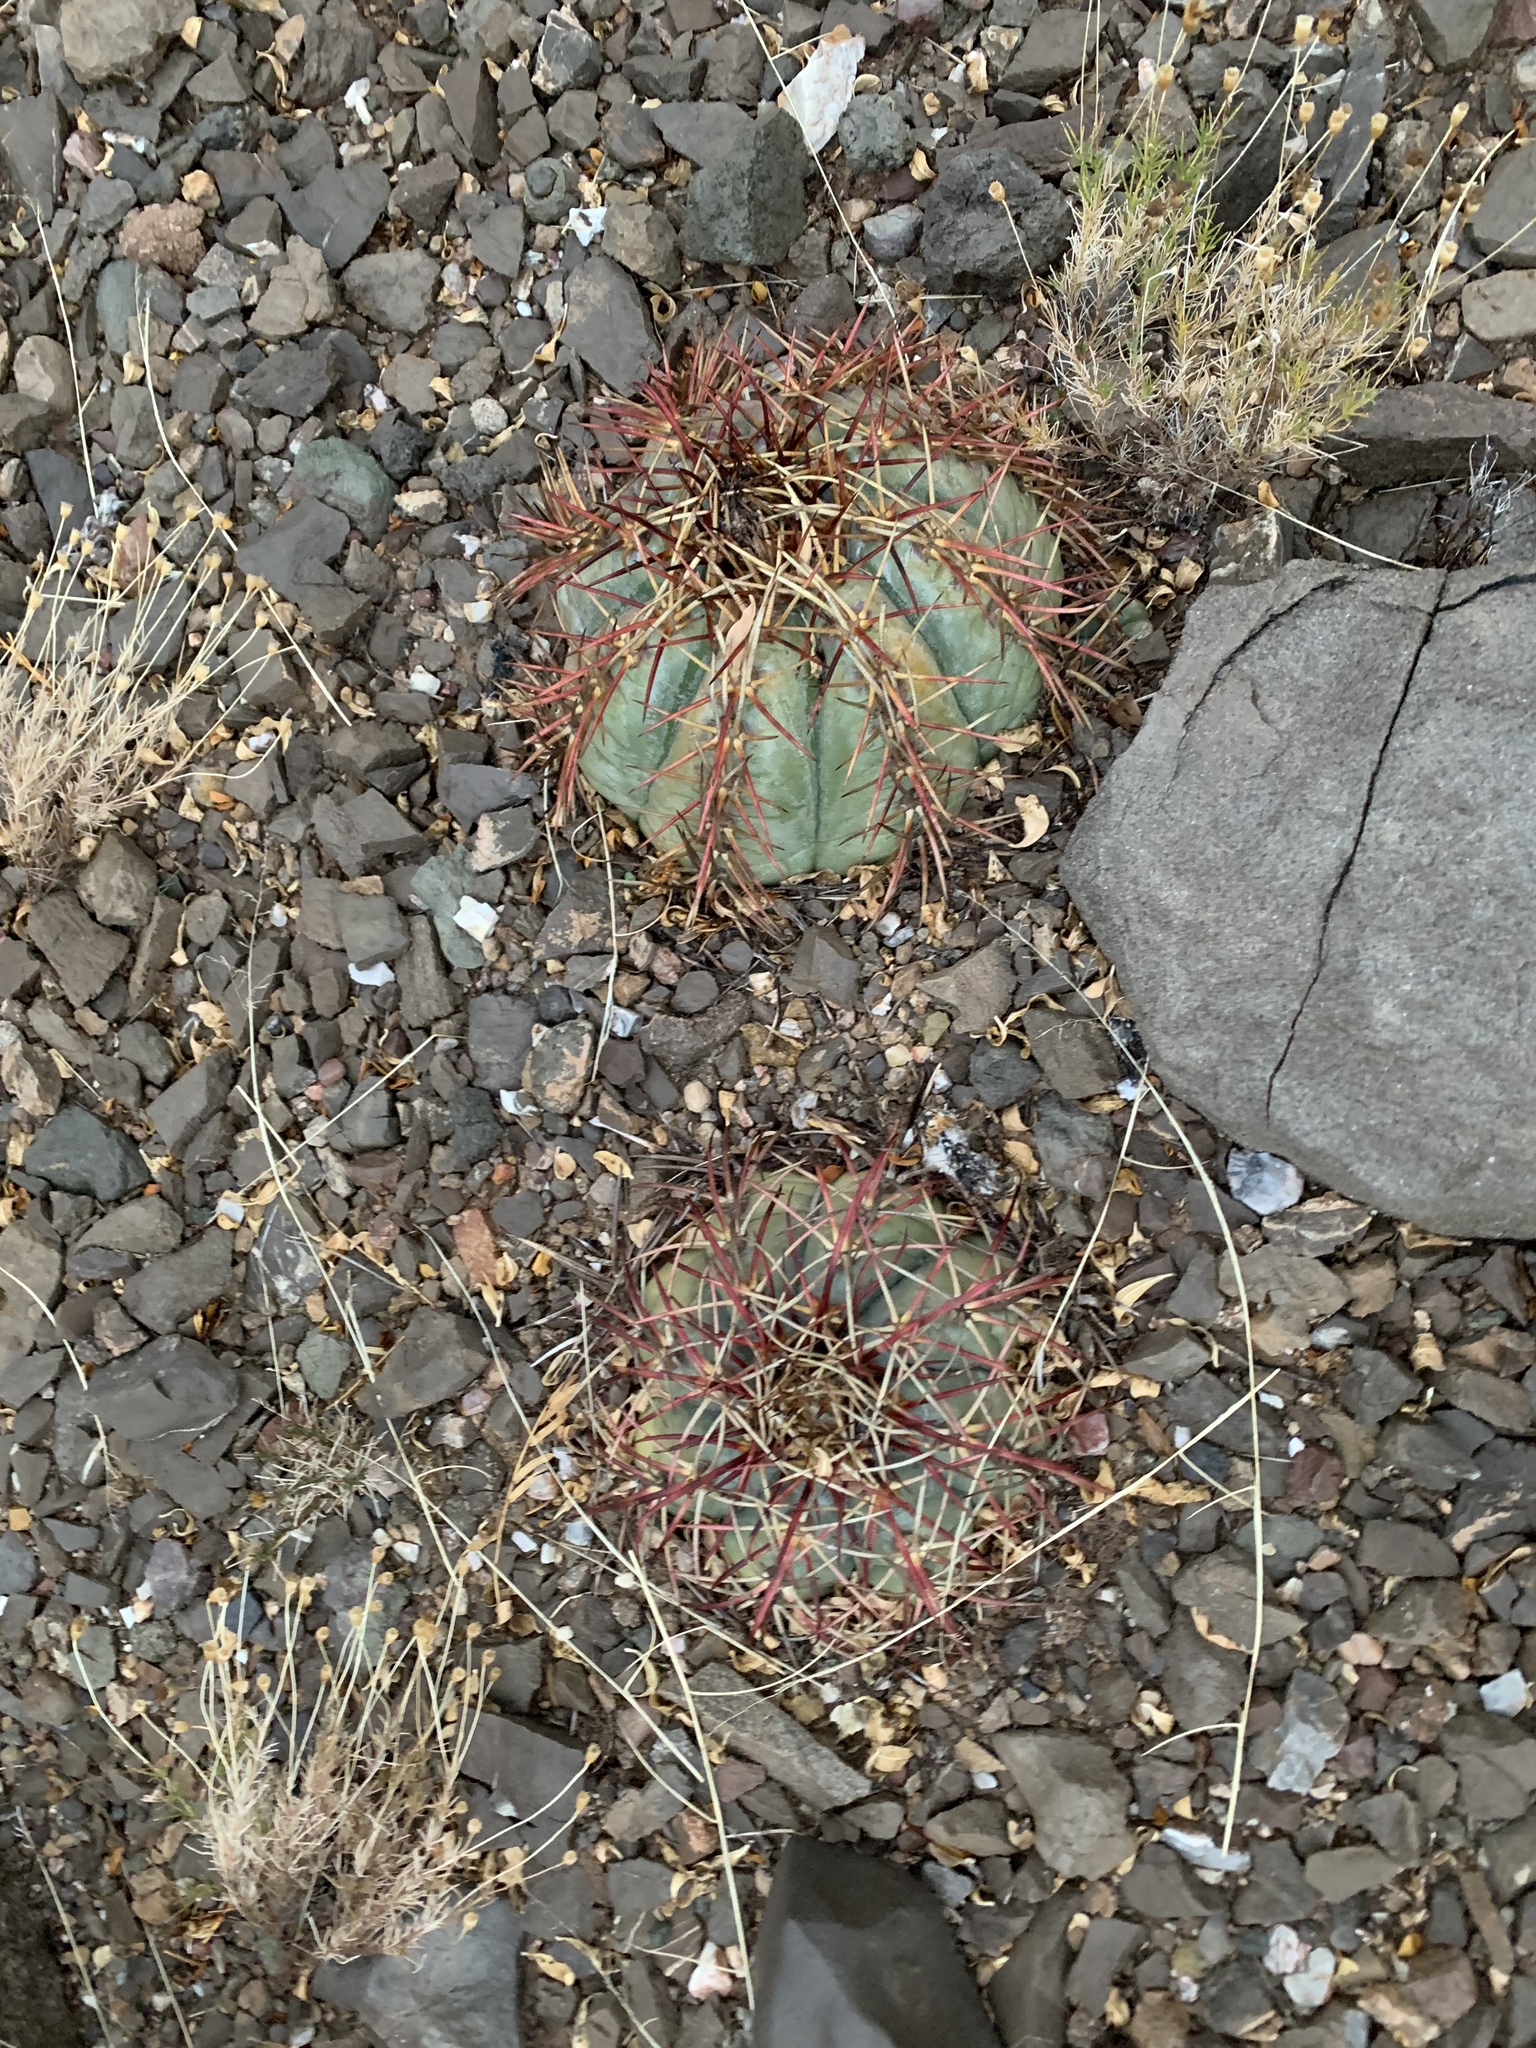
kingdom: Plantae
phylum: Tracheophyta
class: Magnoliopsida
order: Caryophyllales
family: Cactaceae
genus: Echinocactus
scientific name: Echinocactus horizonthalonius
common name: Devilshead
